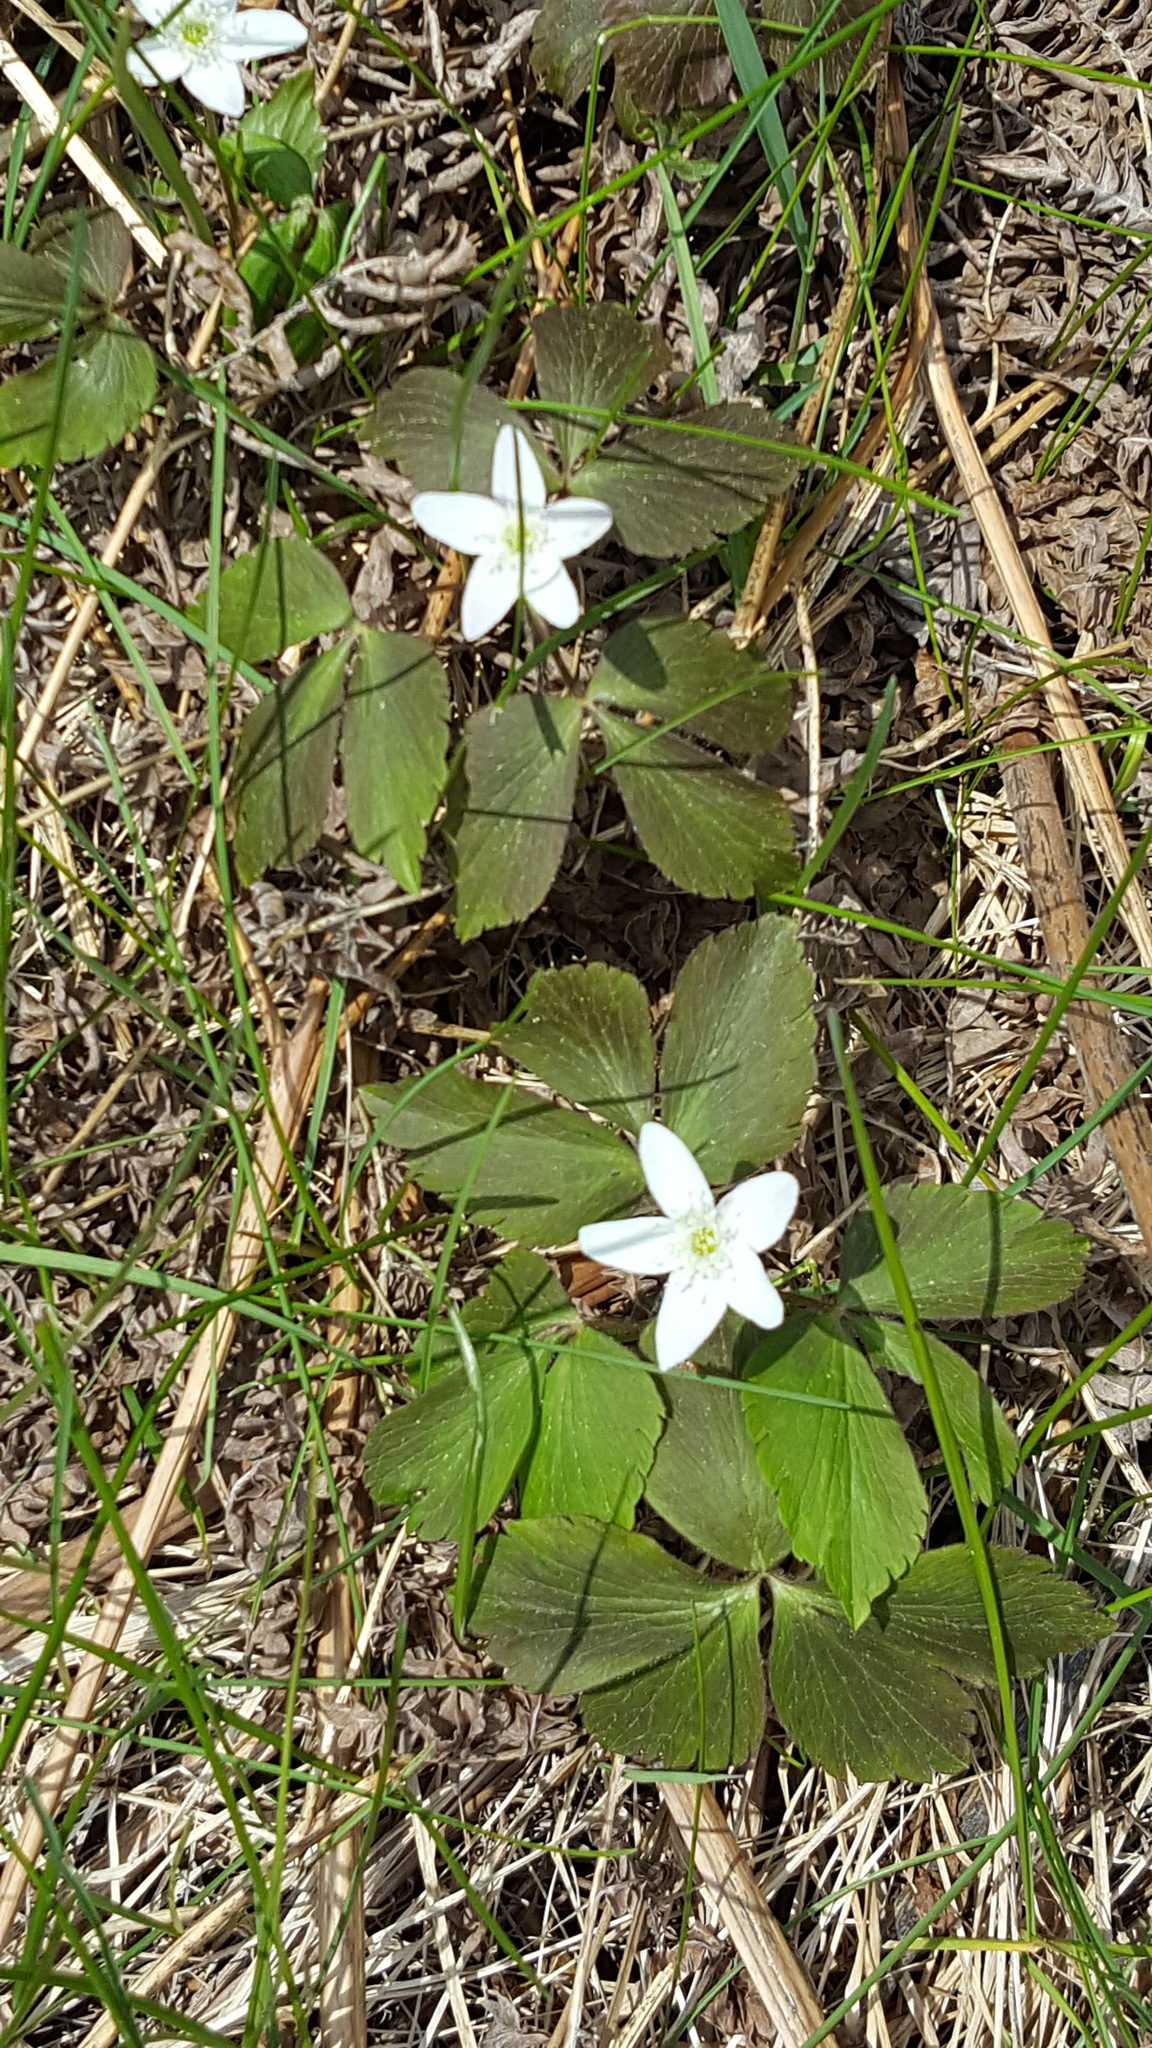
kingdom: Plantae
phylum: Tracheophyta
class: Magnoliopsida
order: Ranunculales
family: Ranunculaceae
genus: Anemone
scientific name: Anemone quinquefolia
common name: Wood anemone
